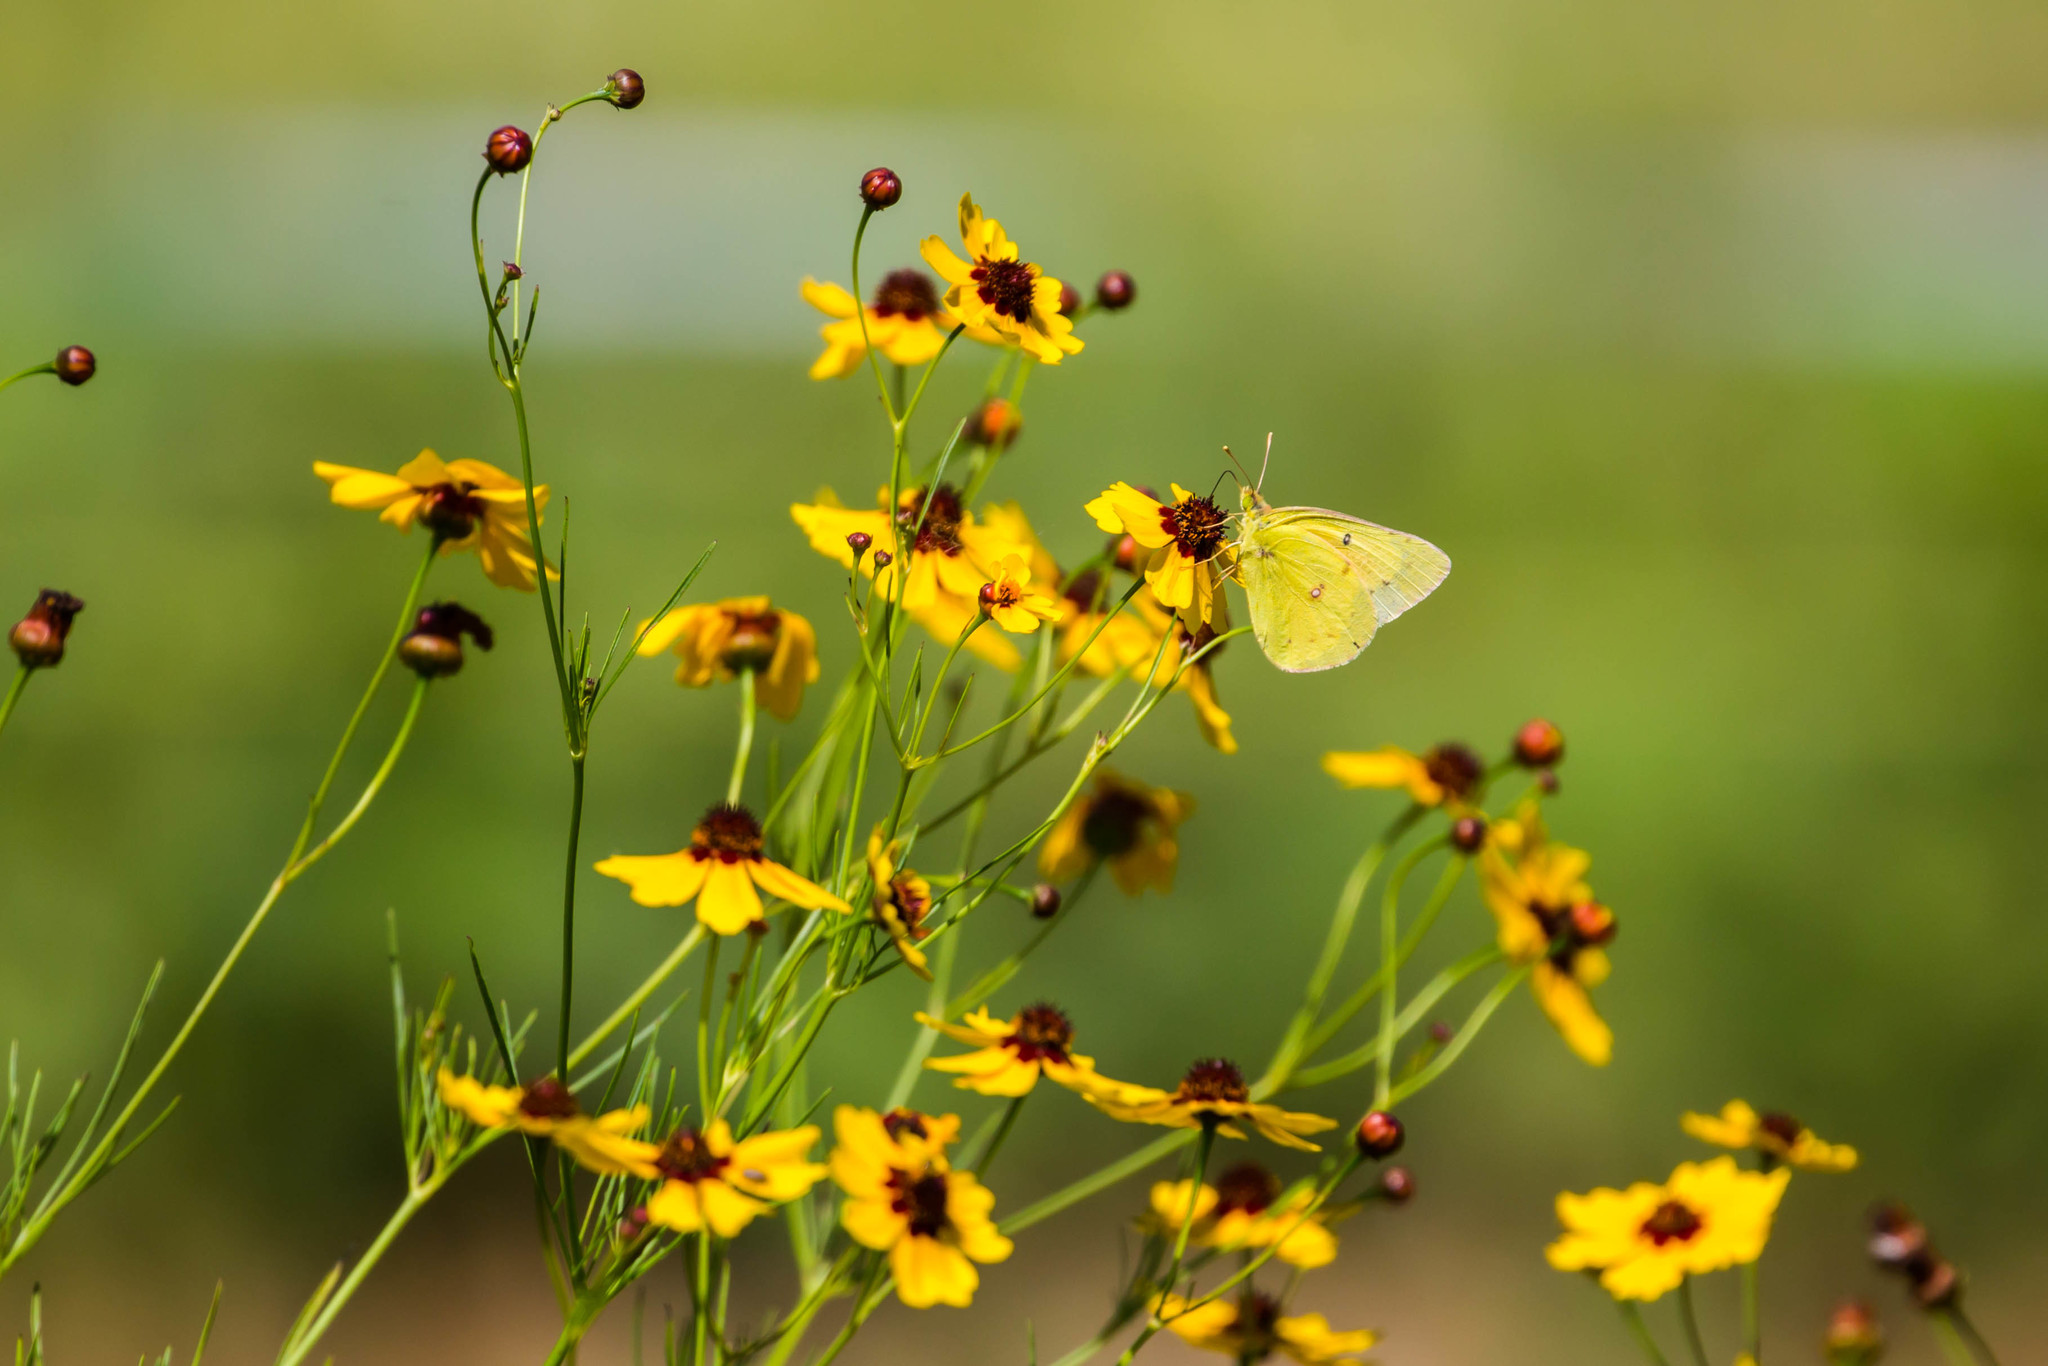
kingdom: Animalia
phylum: Arthropoda
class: Insecta
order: Lepidoptera
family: Pieridae
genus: Colias
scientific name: Colias eurytheme
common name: Alfalfa butterfly
